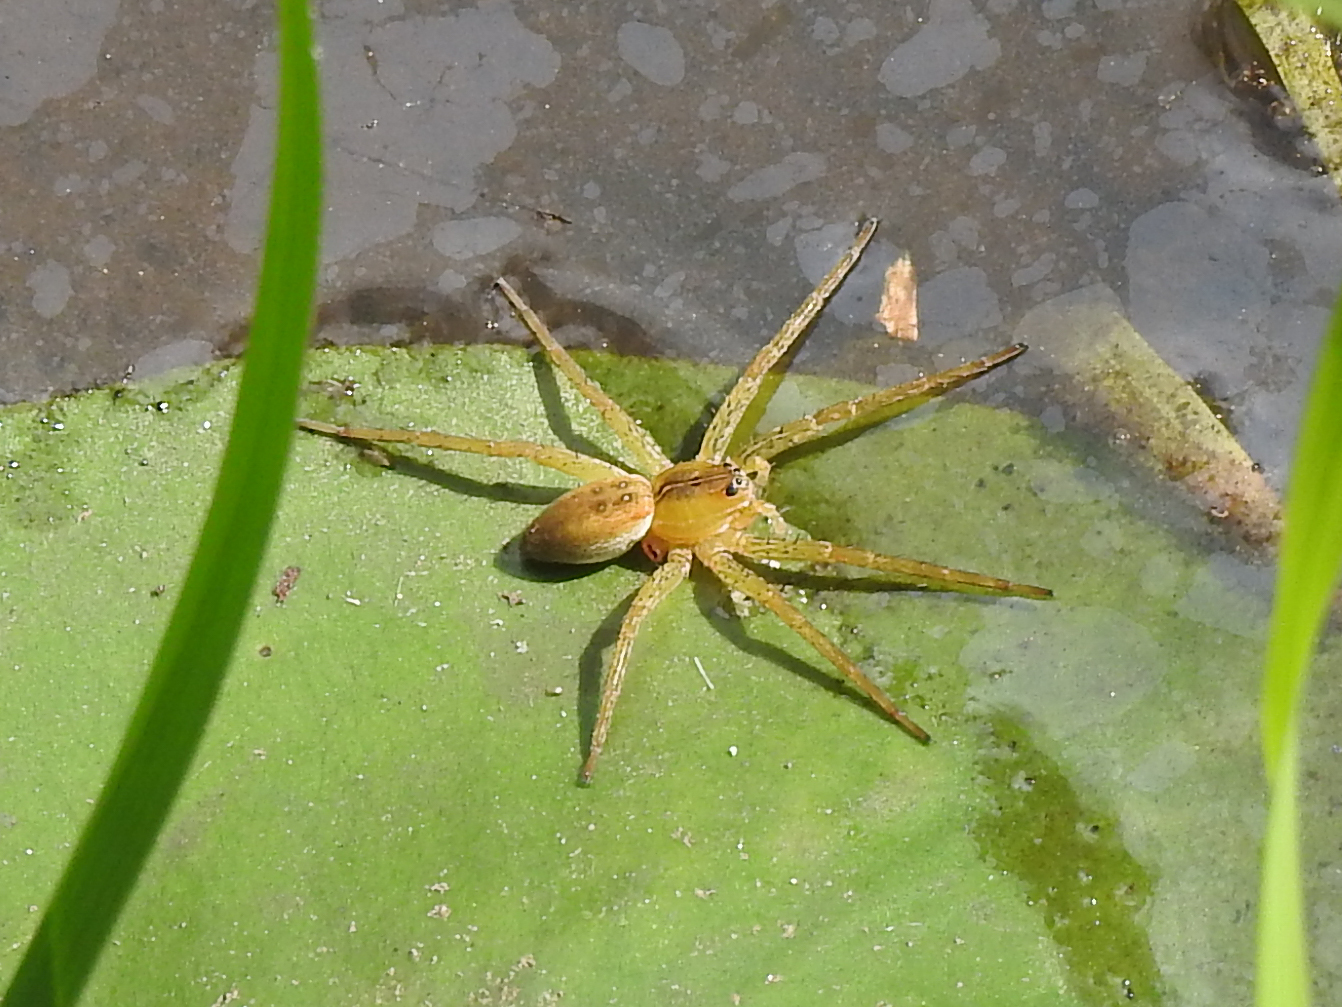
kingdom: Animalia
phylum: Arthropoda
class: Arachnida
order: Araneae
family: Pisauridae
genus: Dolomedes
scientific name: Dolomedes triton
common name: Six-spotted fishing spider
